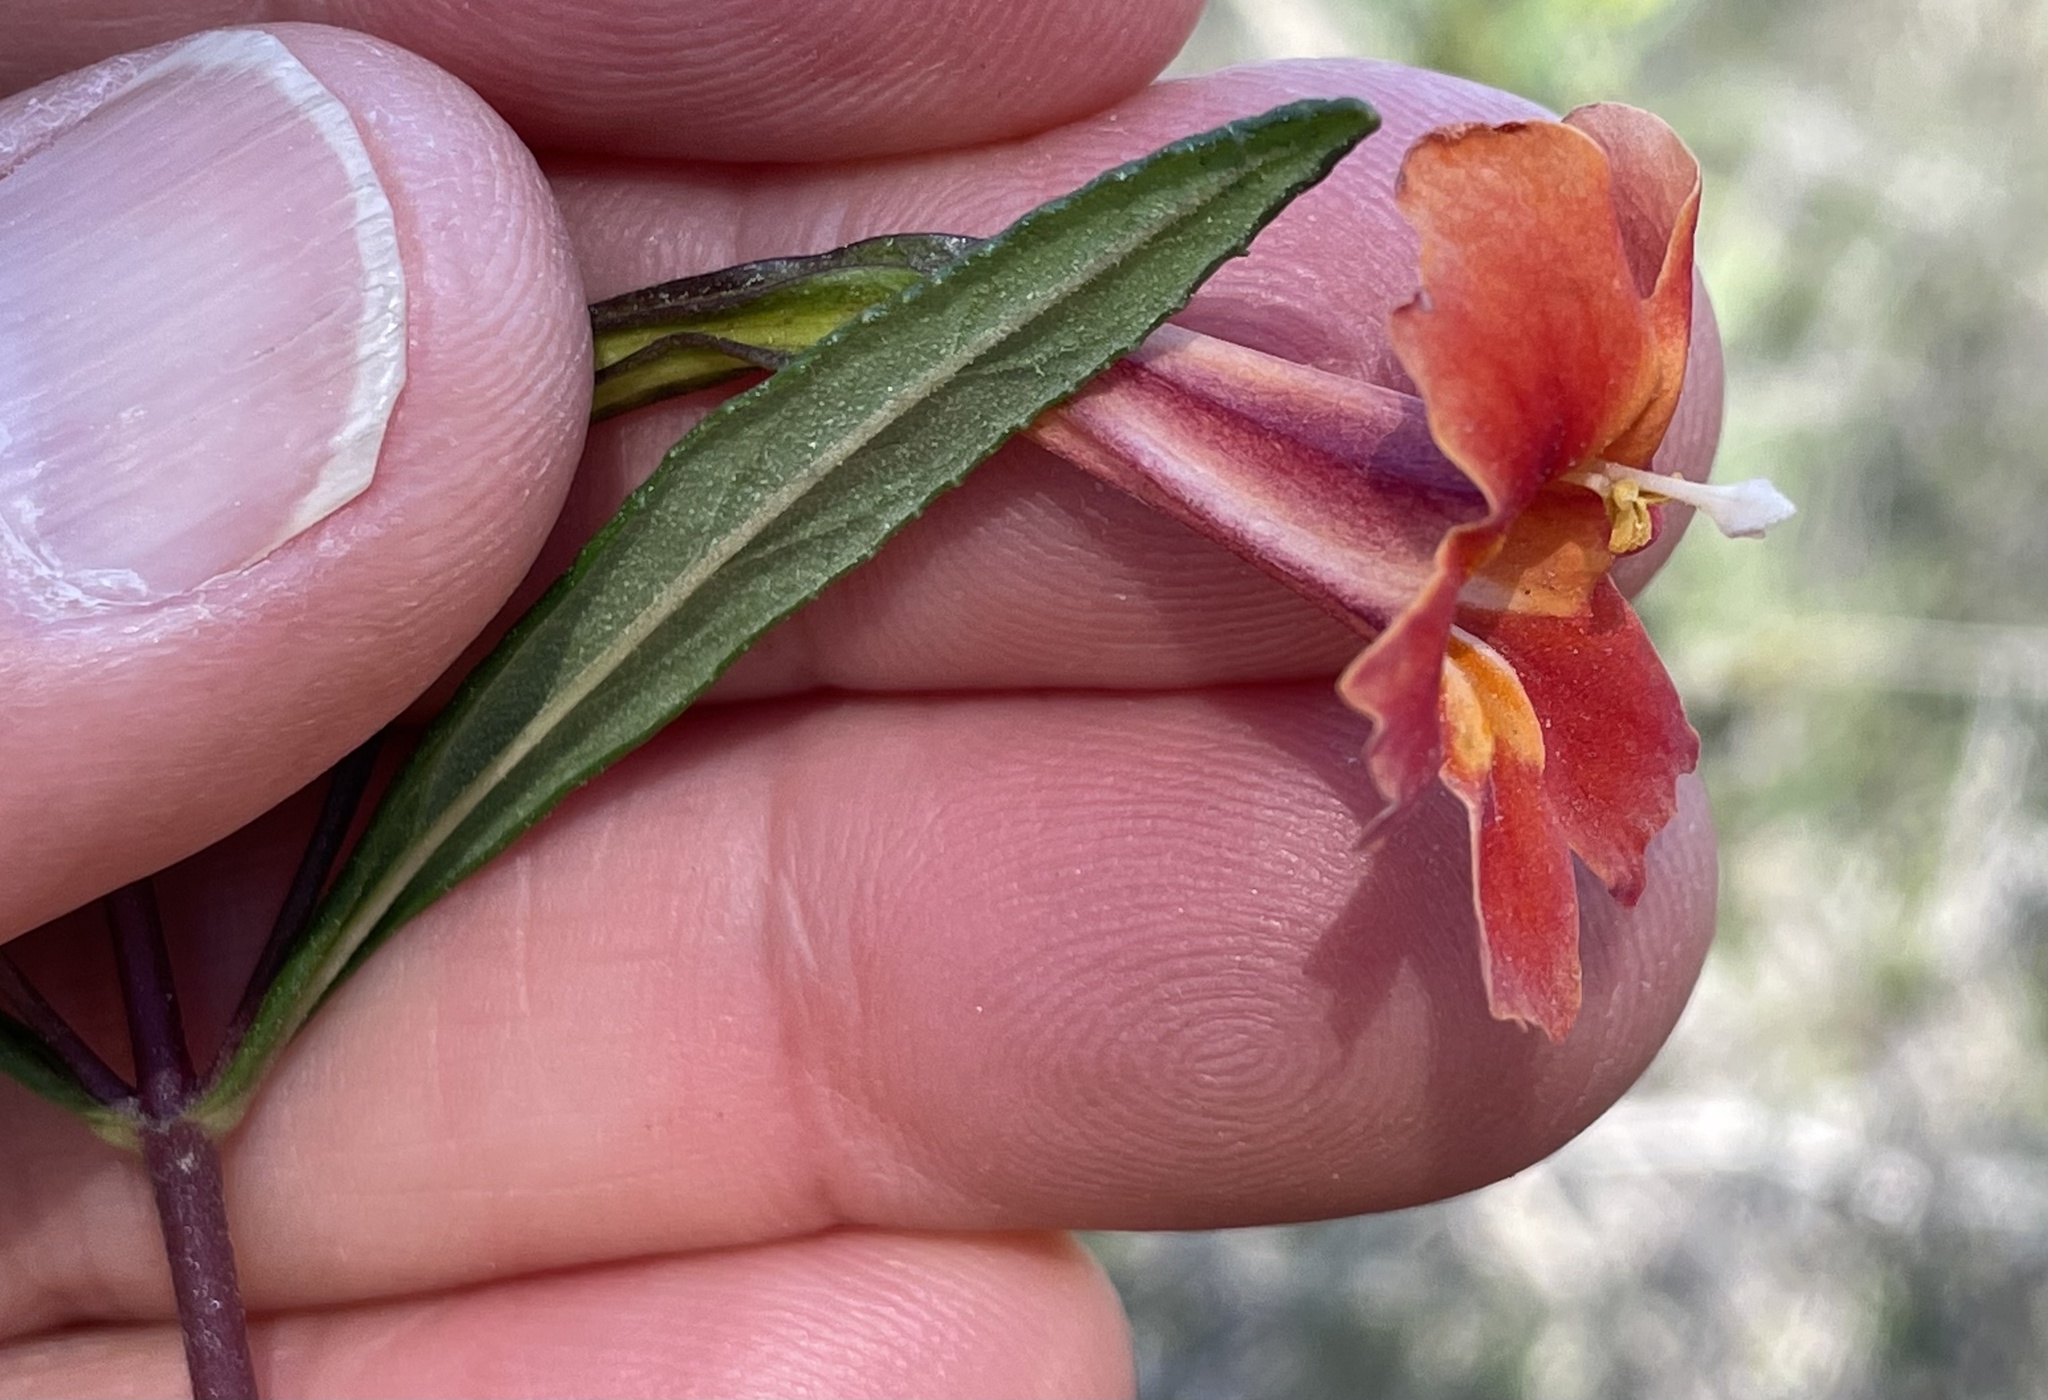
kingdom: Plantae
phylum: Tracheophyta
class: Magnoliopsida
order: Lamiales
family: Phrymaceae
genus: Diplacus
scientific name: Diplacus puniceus
